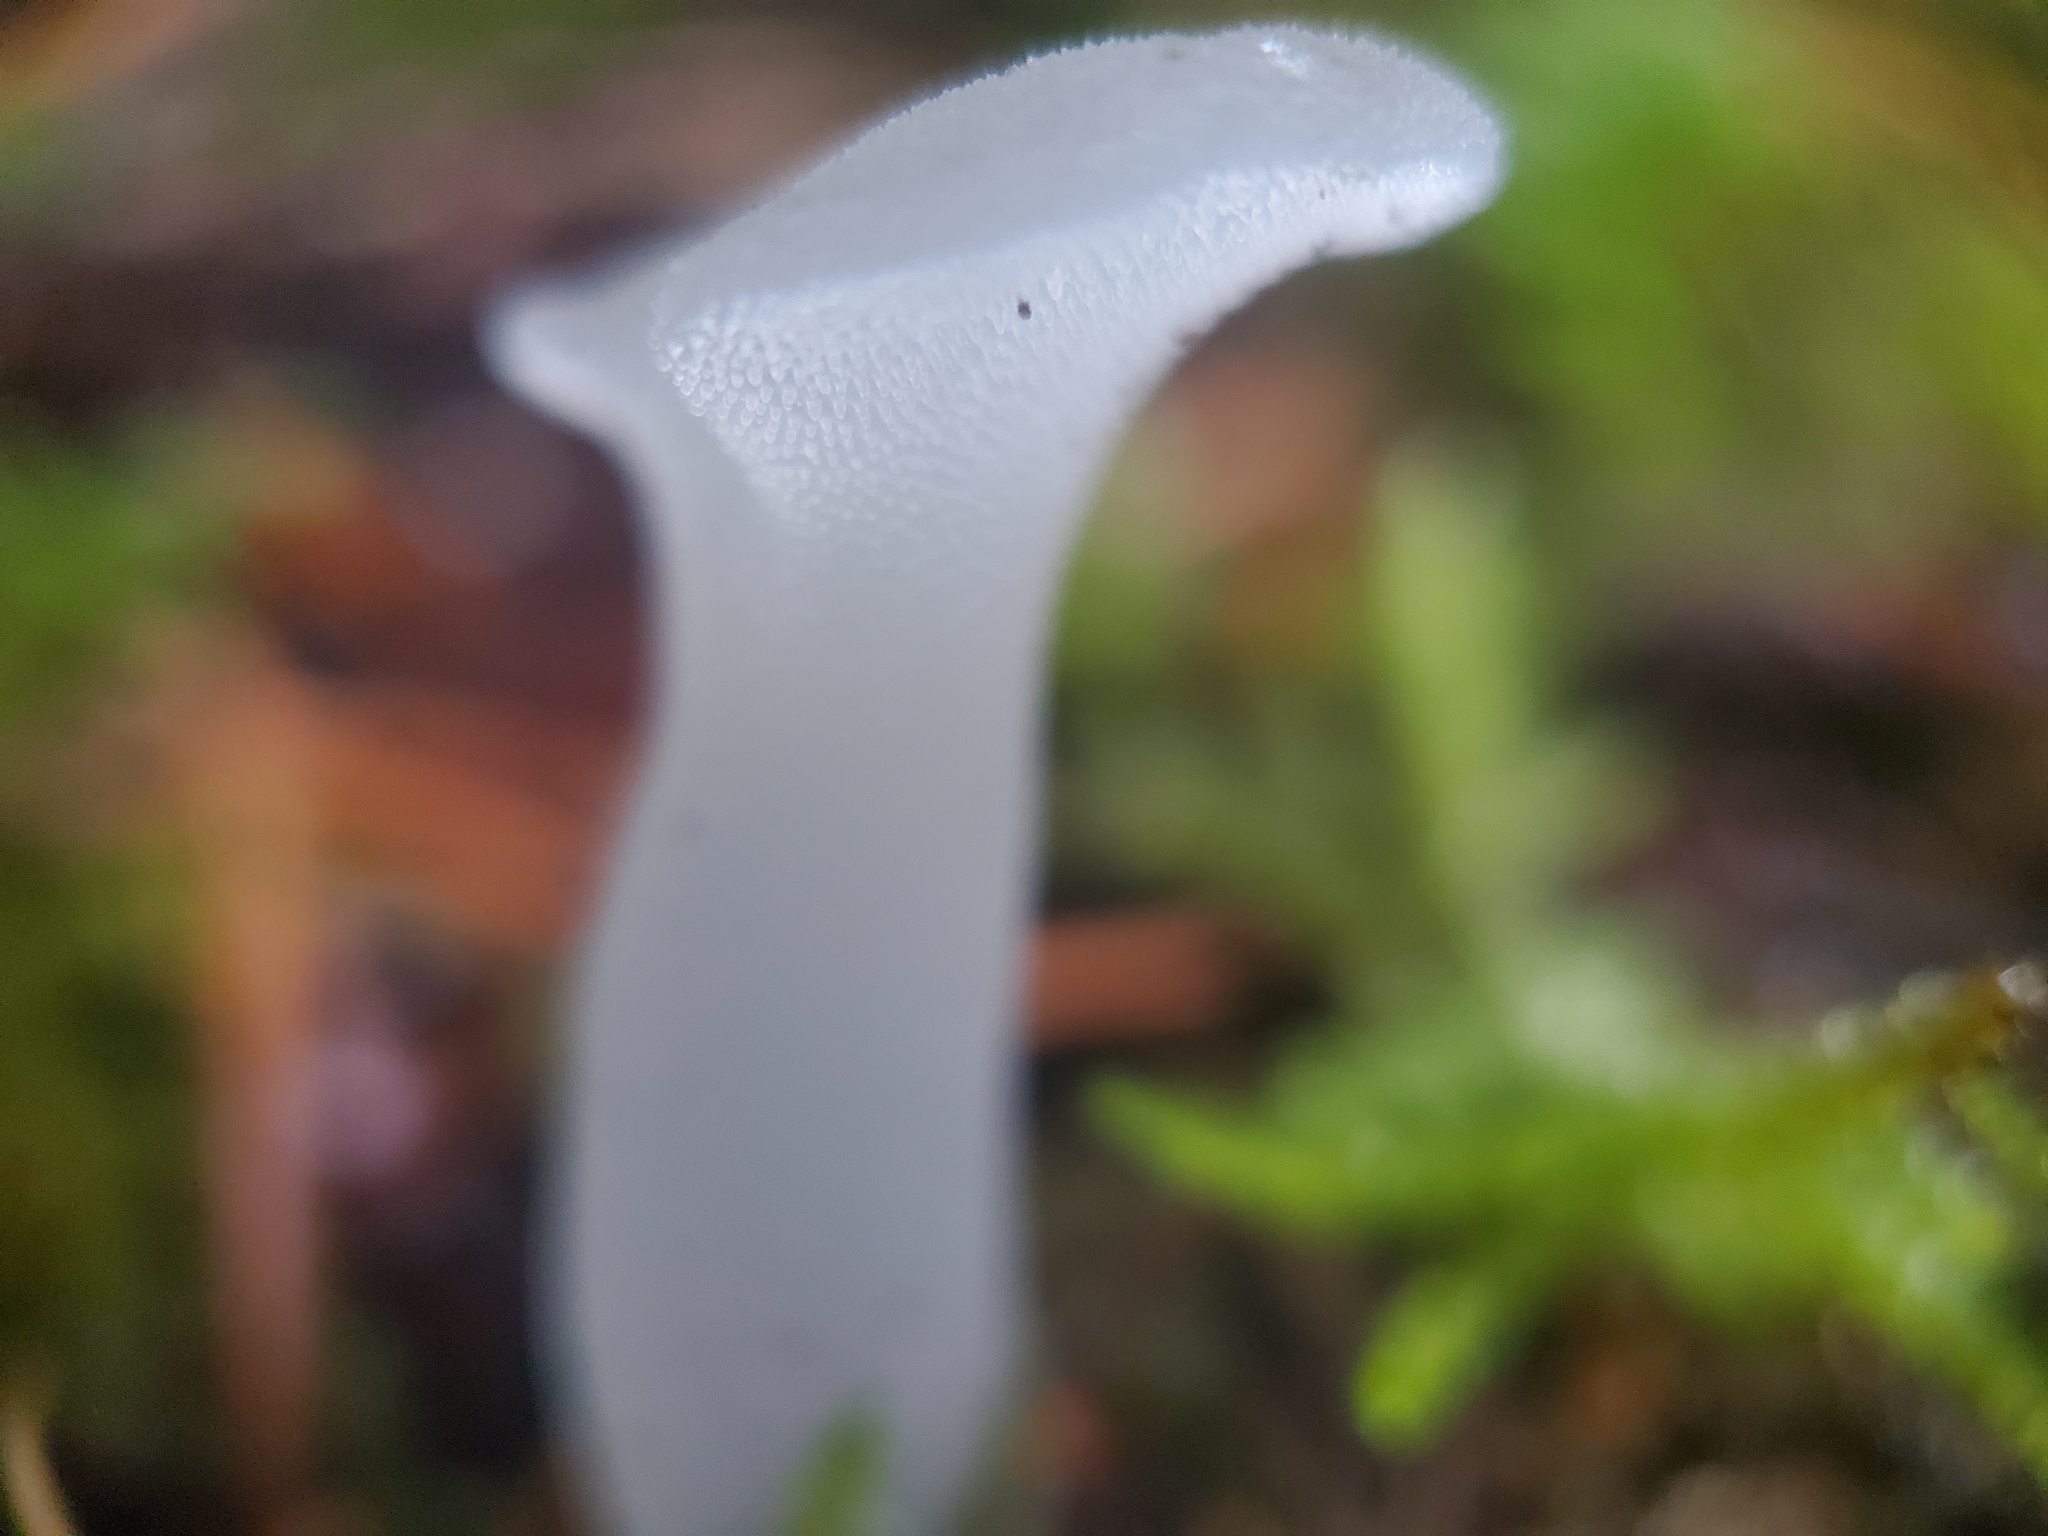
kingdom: Fungi
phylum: Basidiomycota
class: Agaricomycetes
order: Auriculariales
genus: Pseudohydnum
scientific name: Pseudohydnum gelatinosum
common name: Jelly tongue
